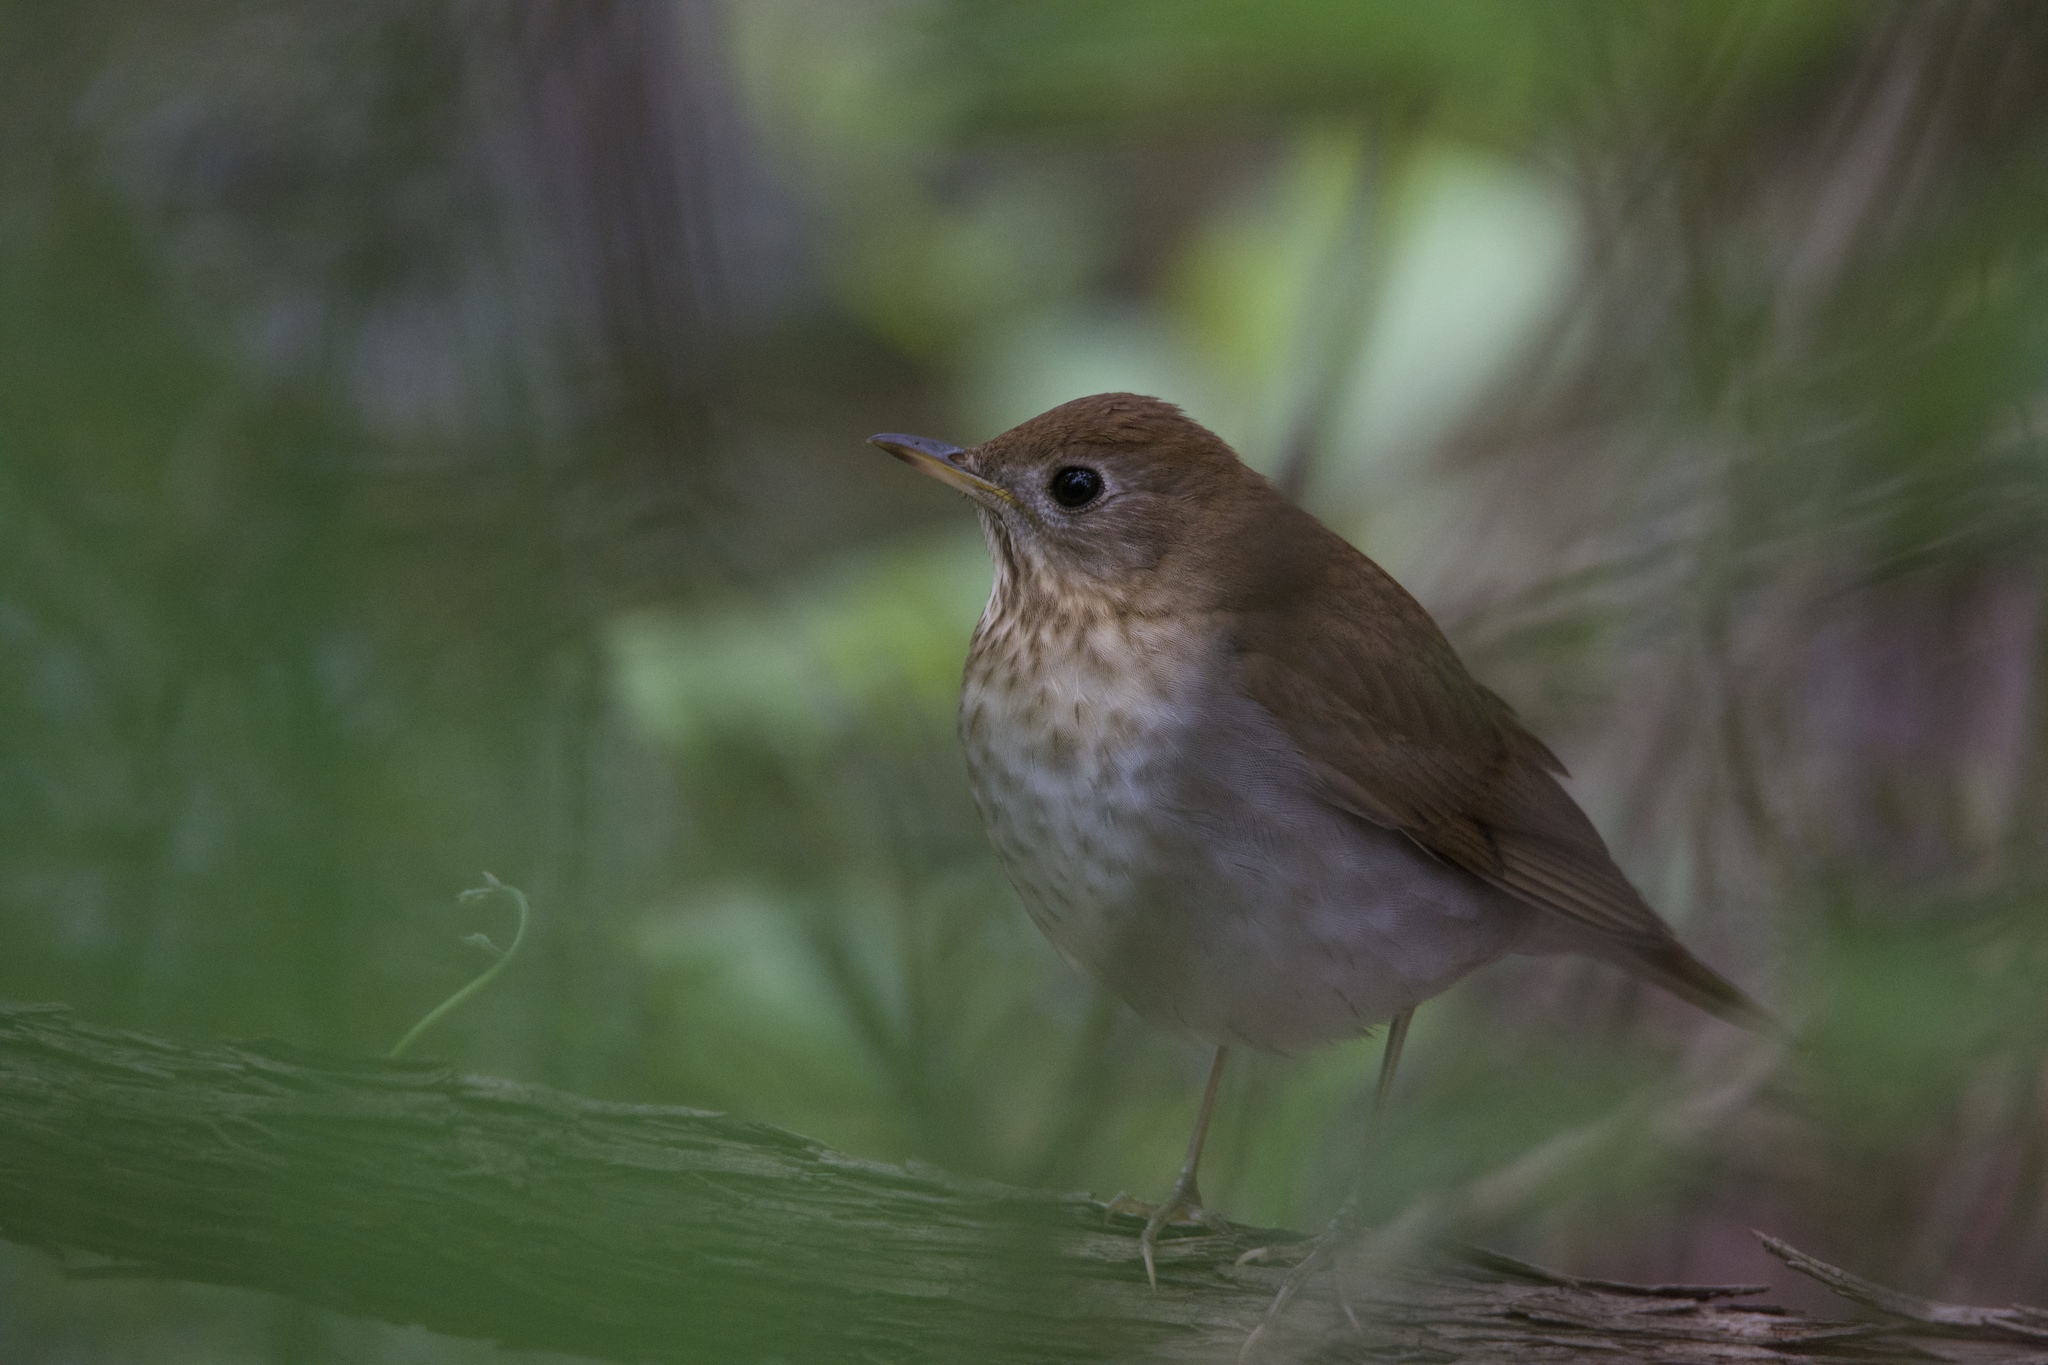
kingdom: Animalia
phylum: Chordata
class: Aves
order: Passeriformes
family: Turdidae
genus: Catharus
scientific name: Catharus fuscescens
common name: Veery
